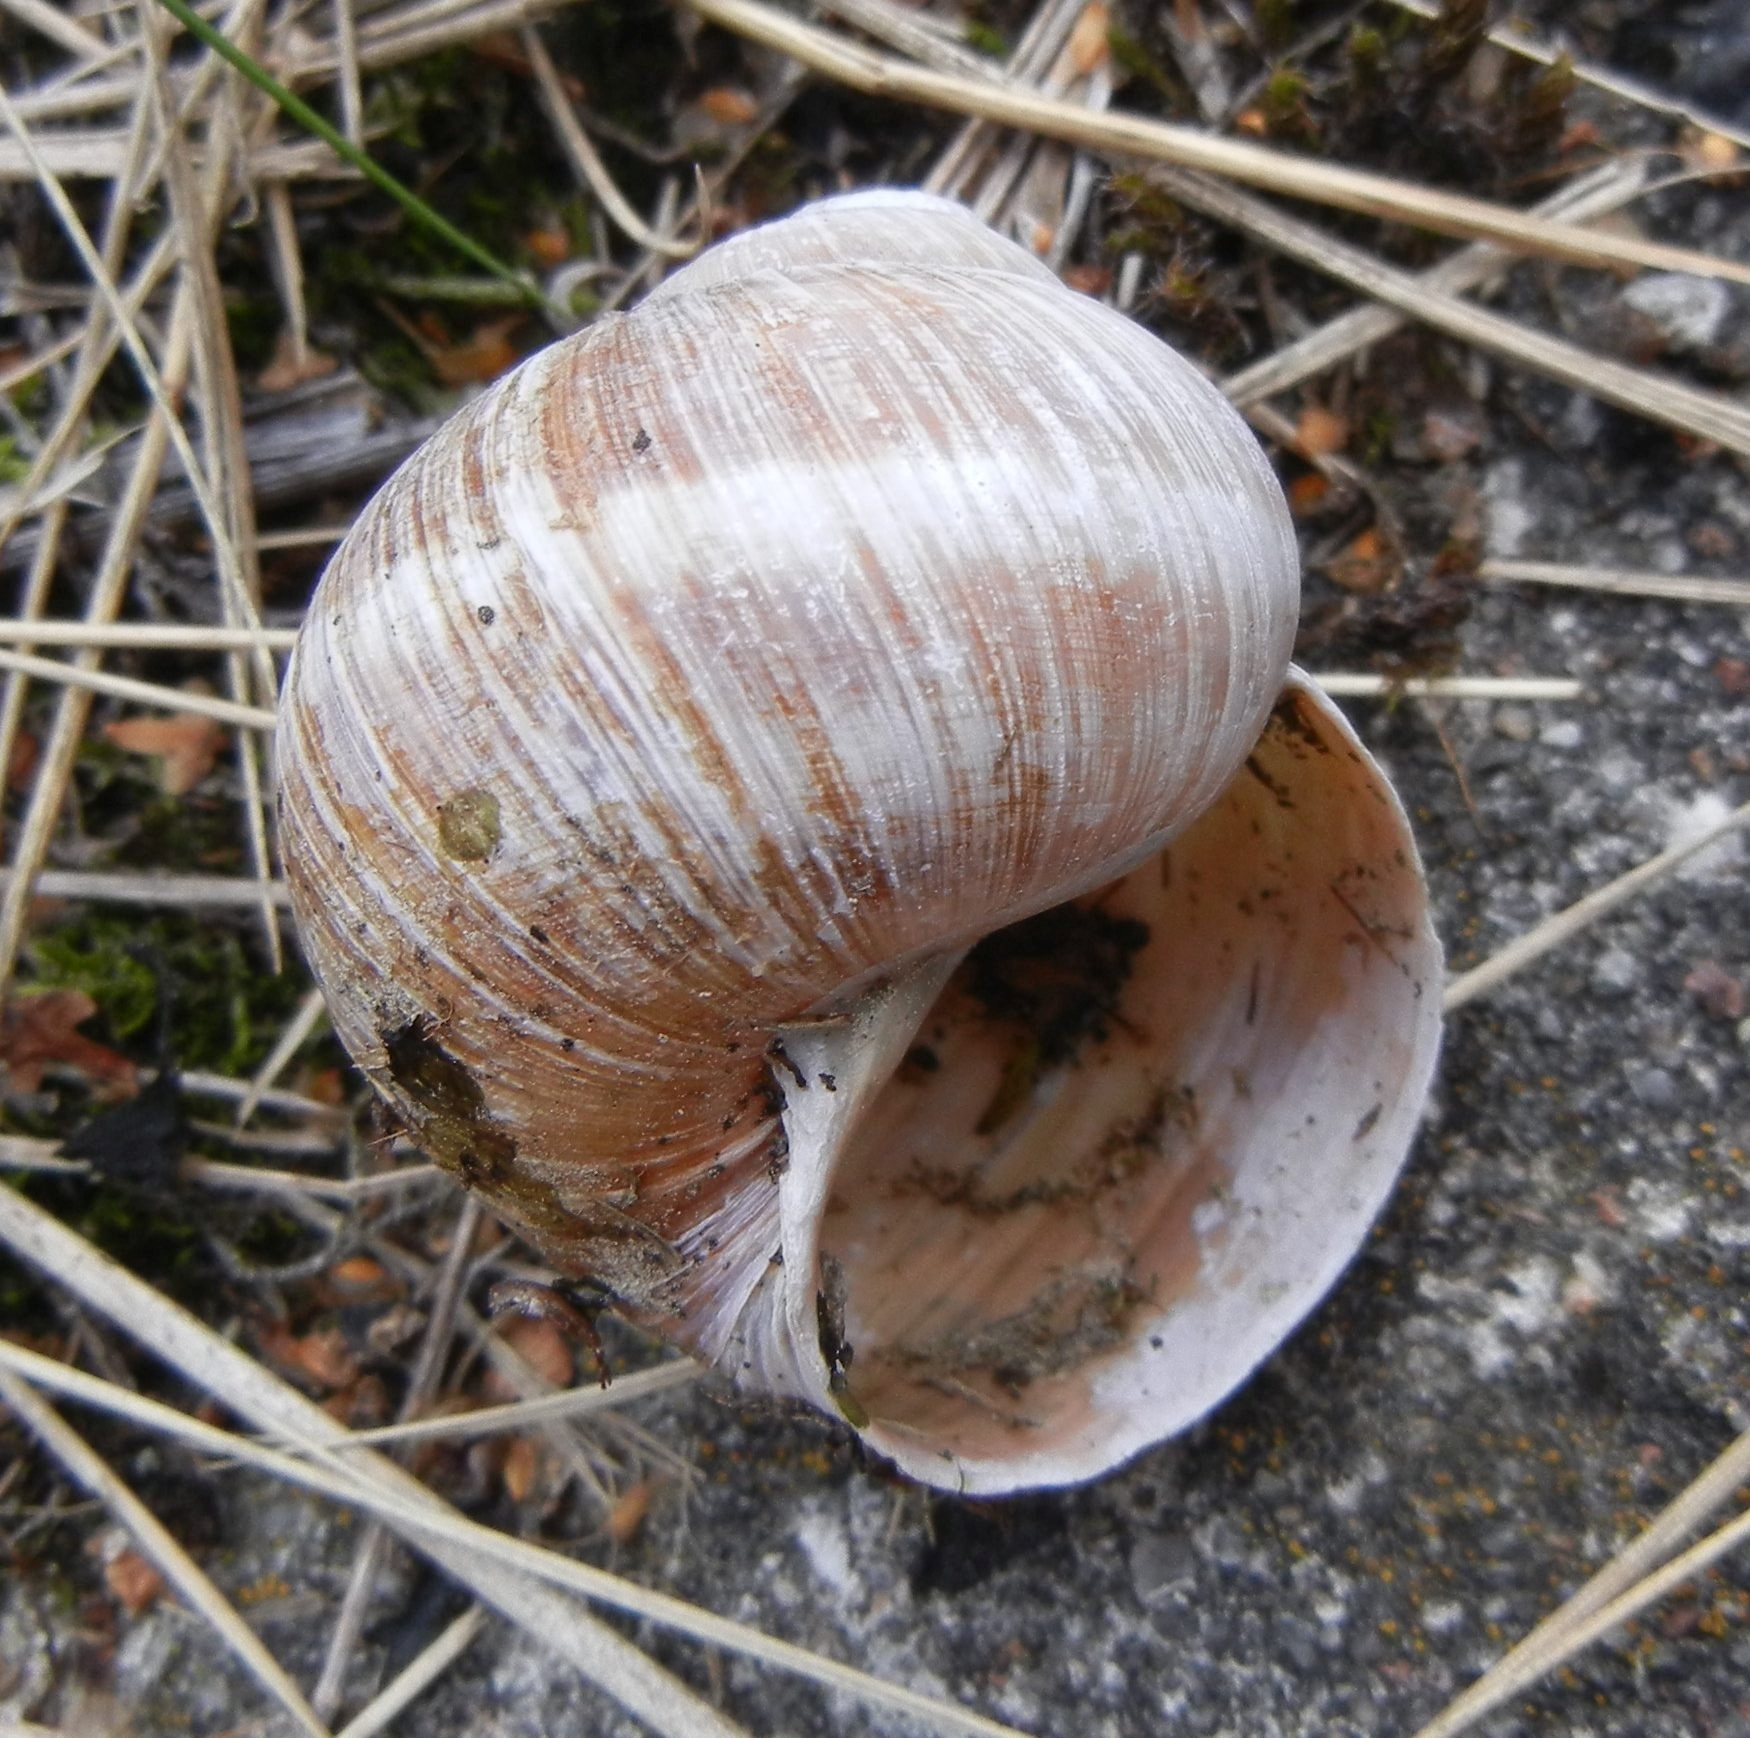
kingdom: Animalia
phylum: Mollusca
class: Gastropoda
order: Stylommatophora
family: Helicidae
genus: Helix
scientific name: Helix pomatia
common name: Roman snail
